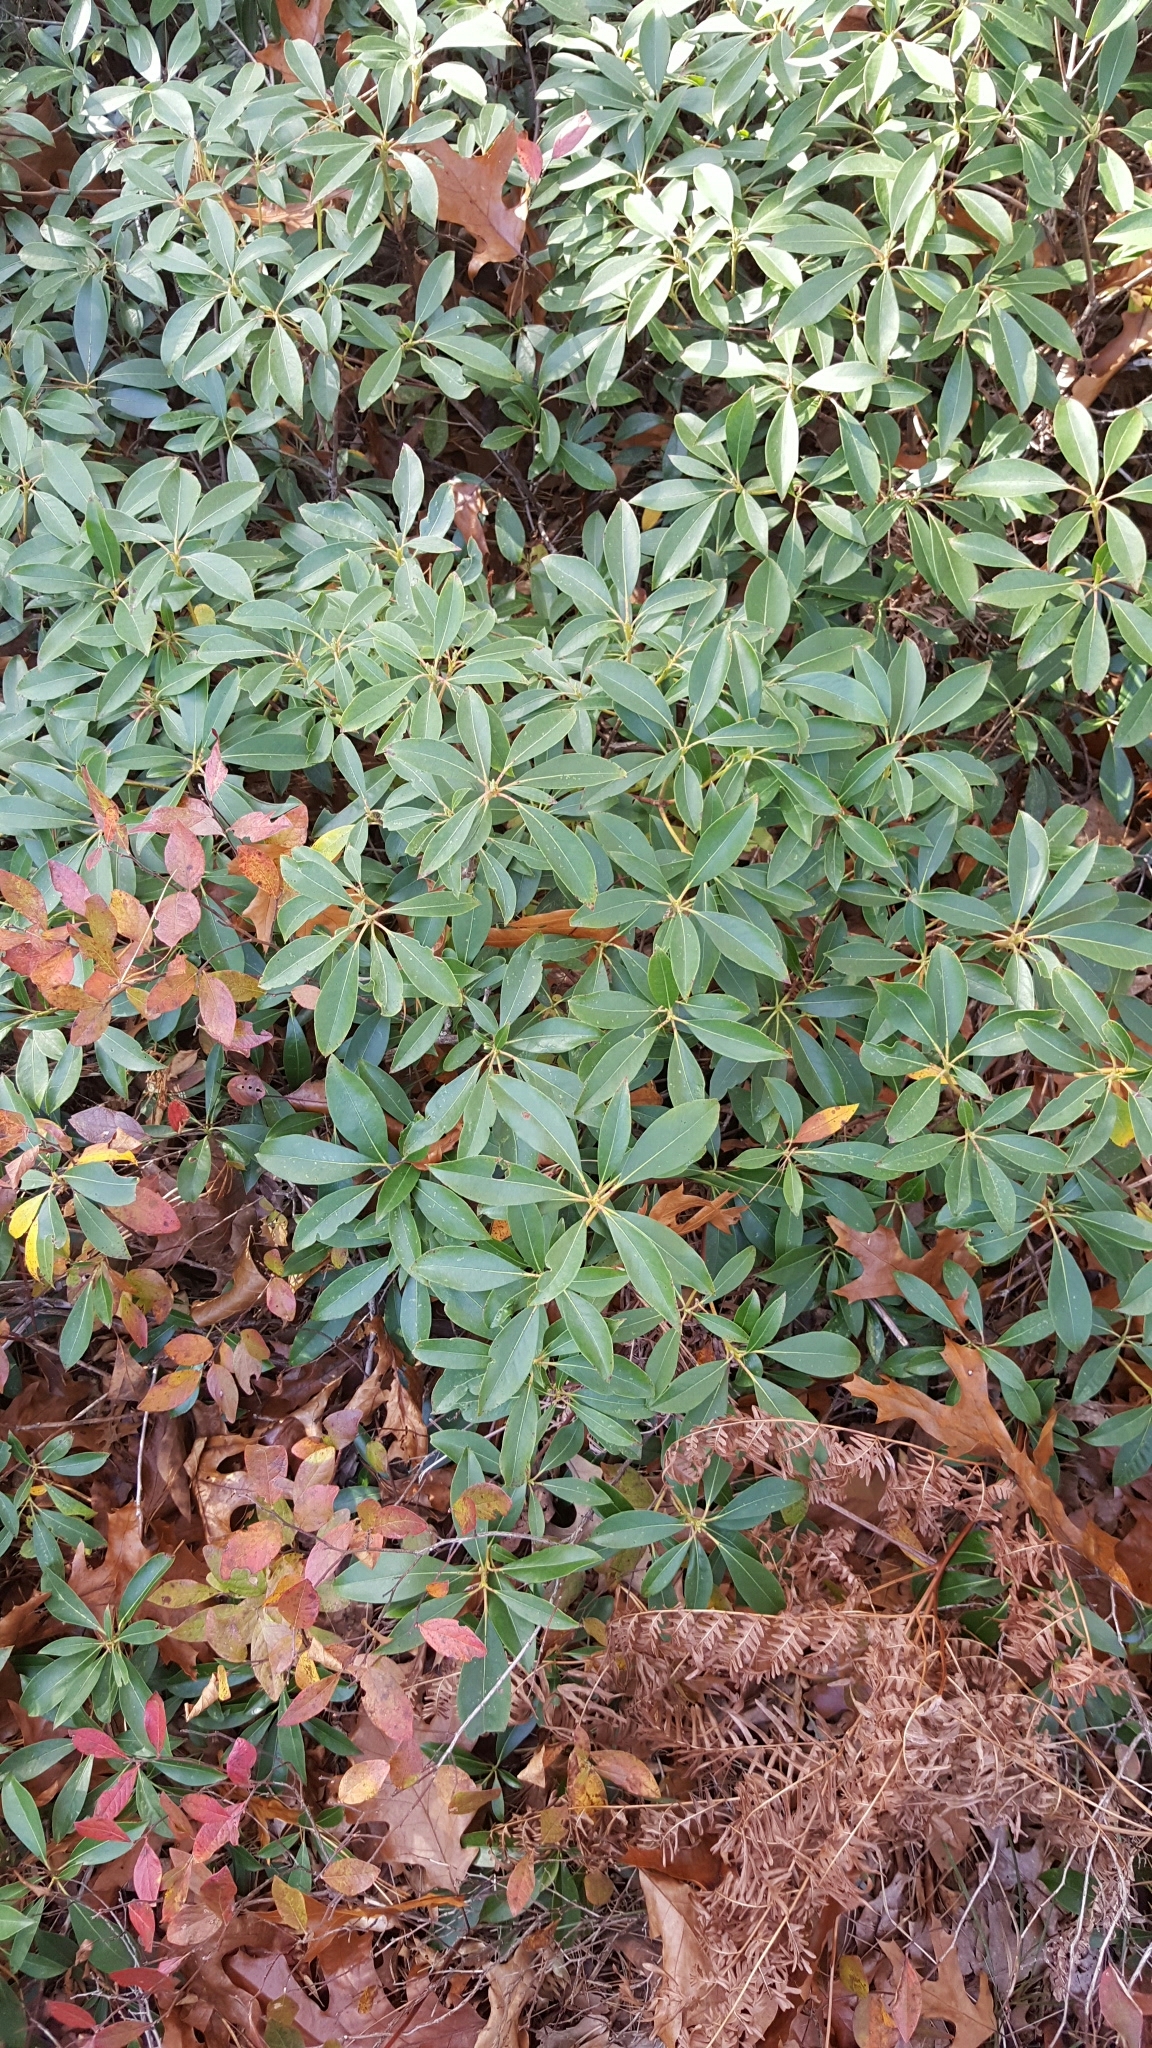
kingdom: Plantae
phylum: Tracheophyta
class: Magnoliopsida
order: Ericales
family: Ericaceae
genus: Kalmia
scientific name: Kalmia latifolia
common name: Mountain-laurel
